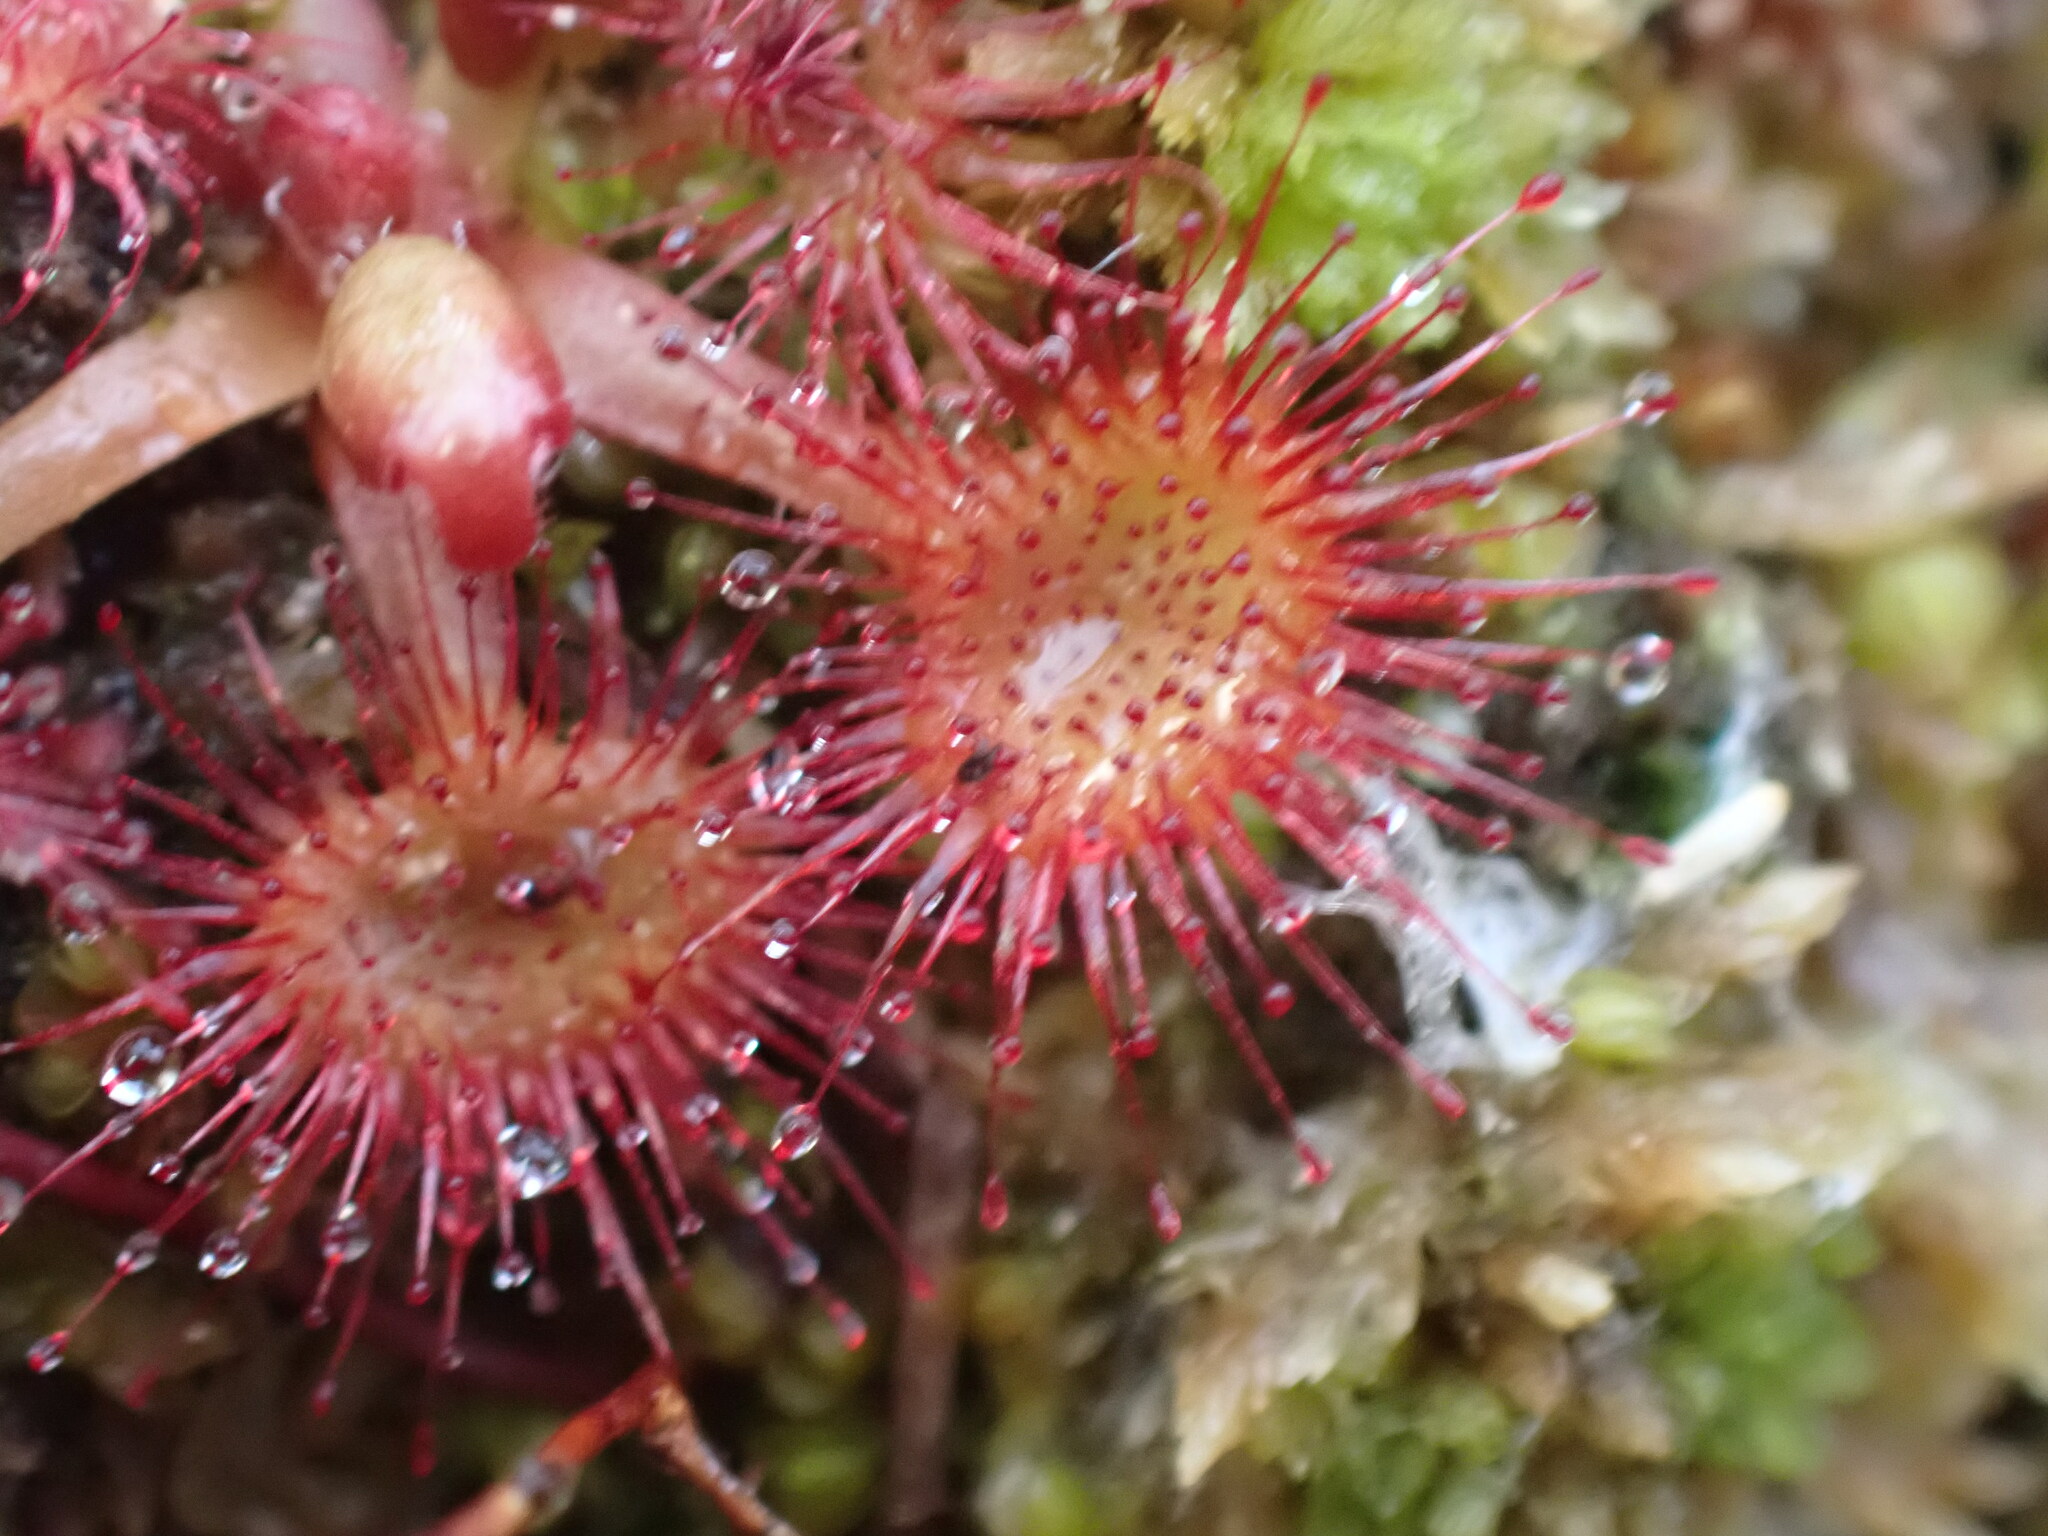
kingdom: Plantae
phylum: Tracheophyta
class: Magnoliopsida
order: Caryophyllales
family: Droseraceae
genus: Drosera
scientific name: Drosera rotundifolia
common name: Round-leaved sundew
